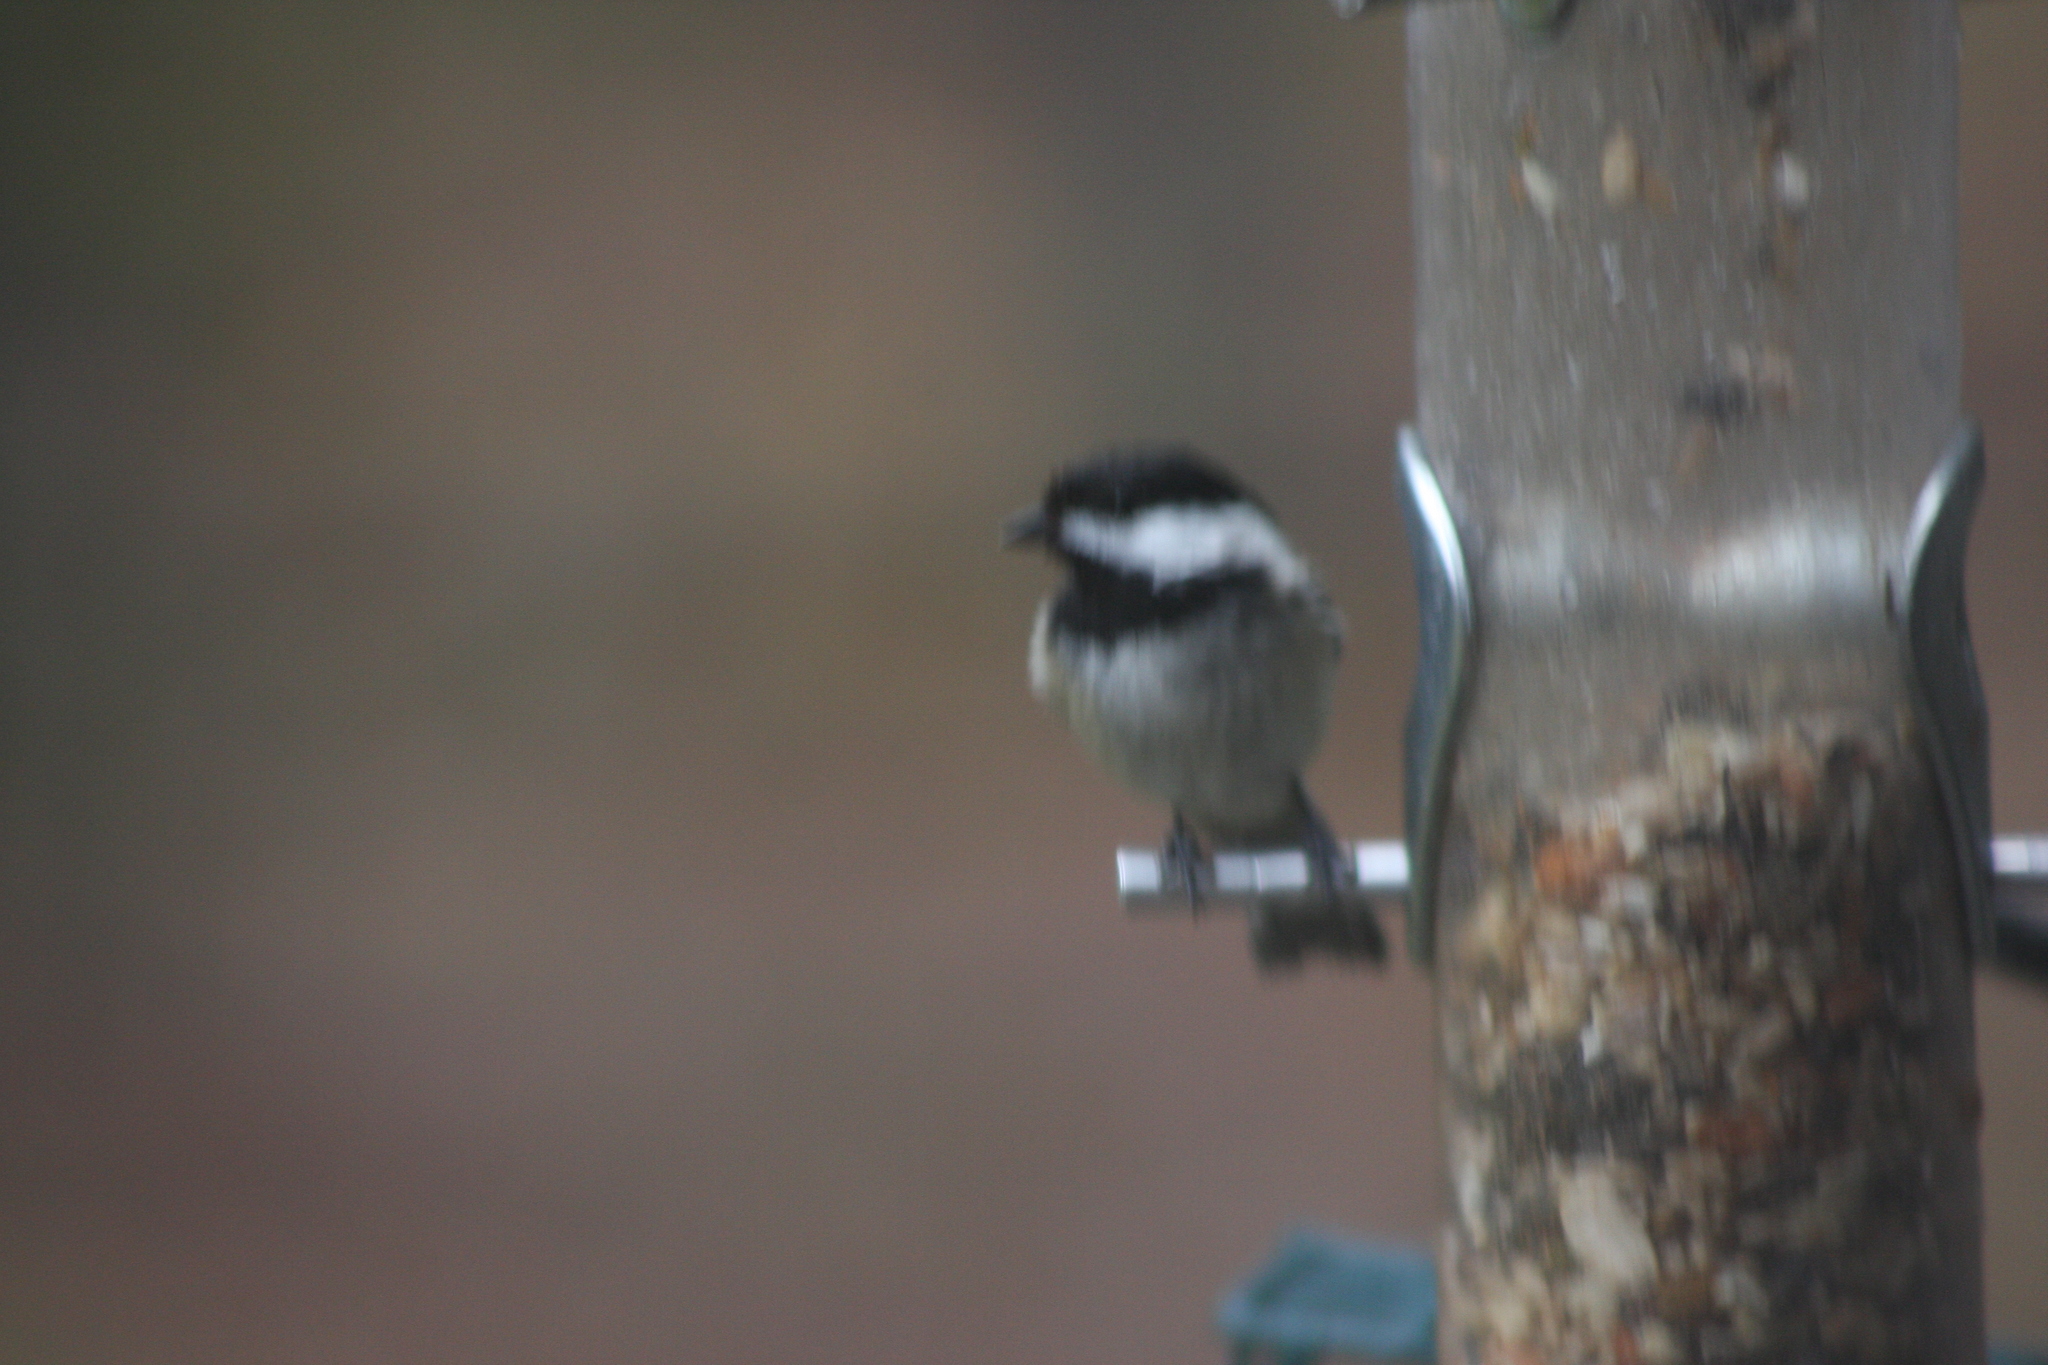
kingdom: Animalia
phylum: Chordata
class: Aves
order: Passeriformes
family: Paridae
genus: Poecile
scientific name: Poecile atricapillus
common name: Black-capped chickadee
